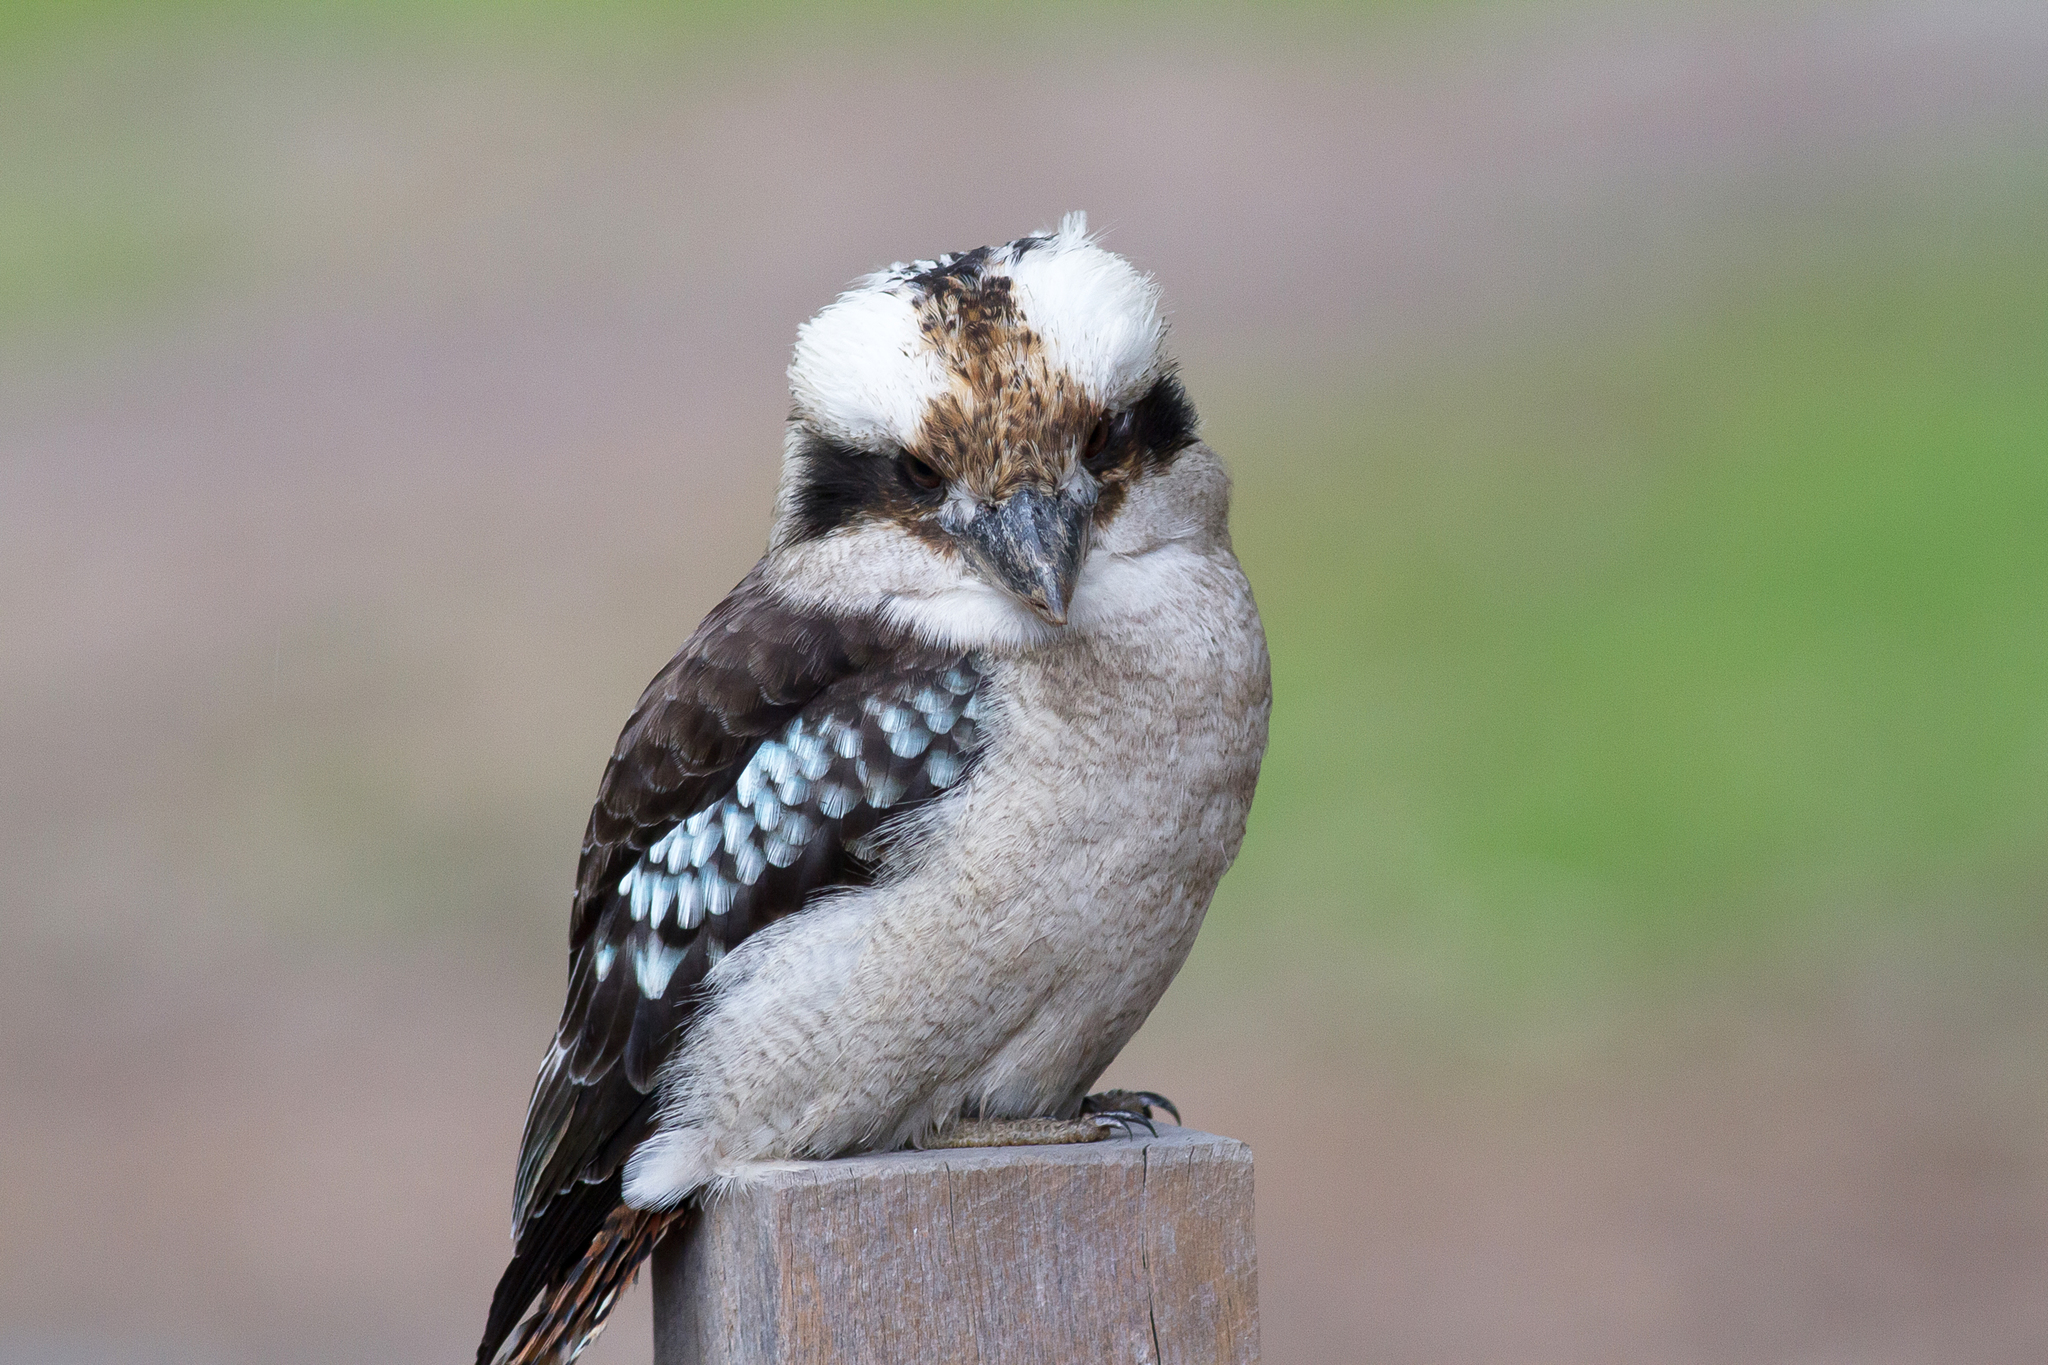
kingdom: Animalia
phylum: Chordata
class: Aves
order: Coraciiformes
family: Alcedinidae
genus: Dacelo
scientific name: Dacelo novaeguineae
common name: Laughing kookaburra
